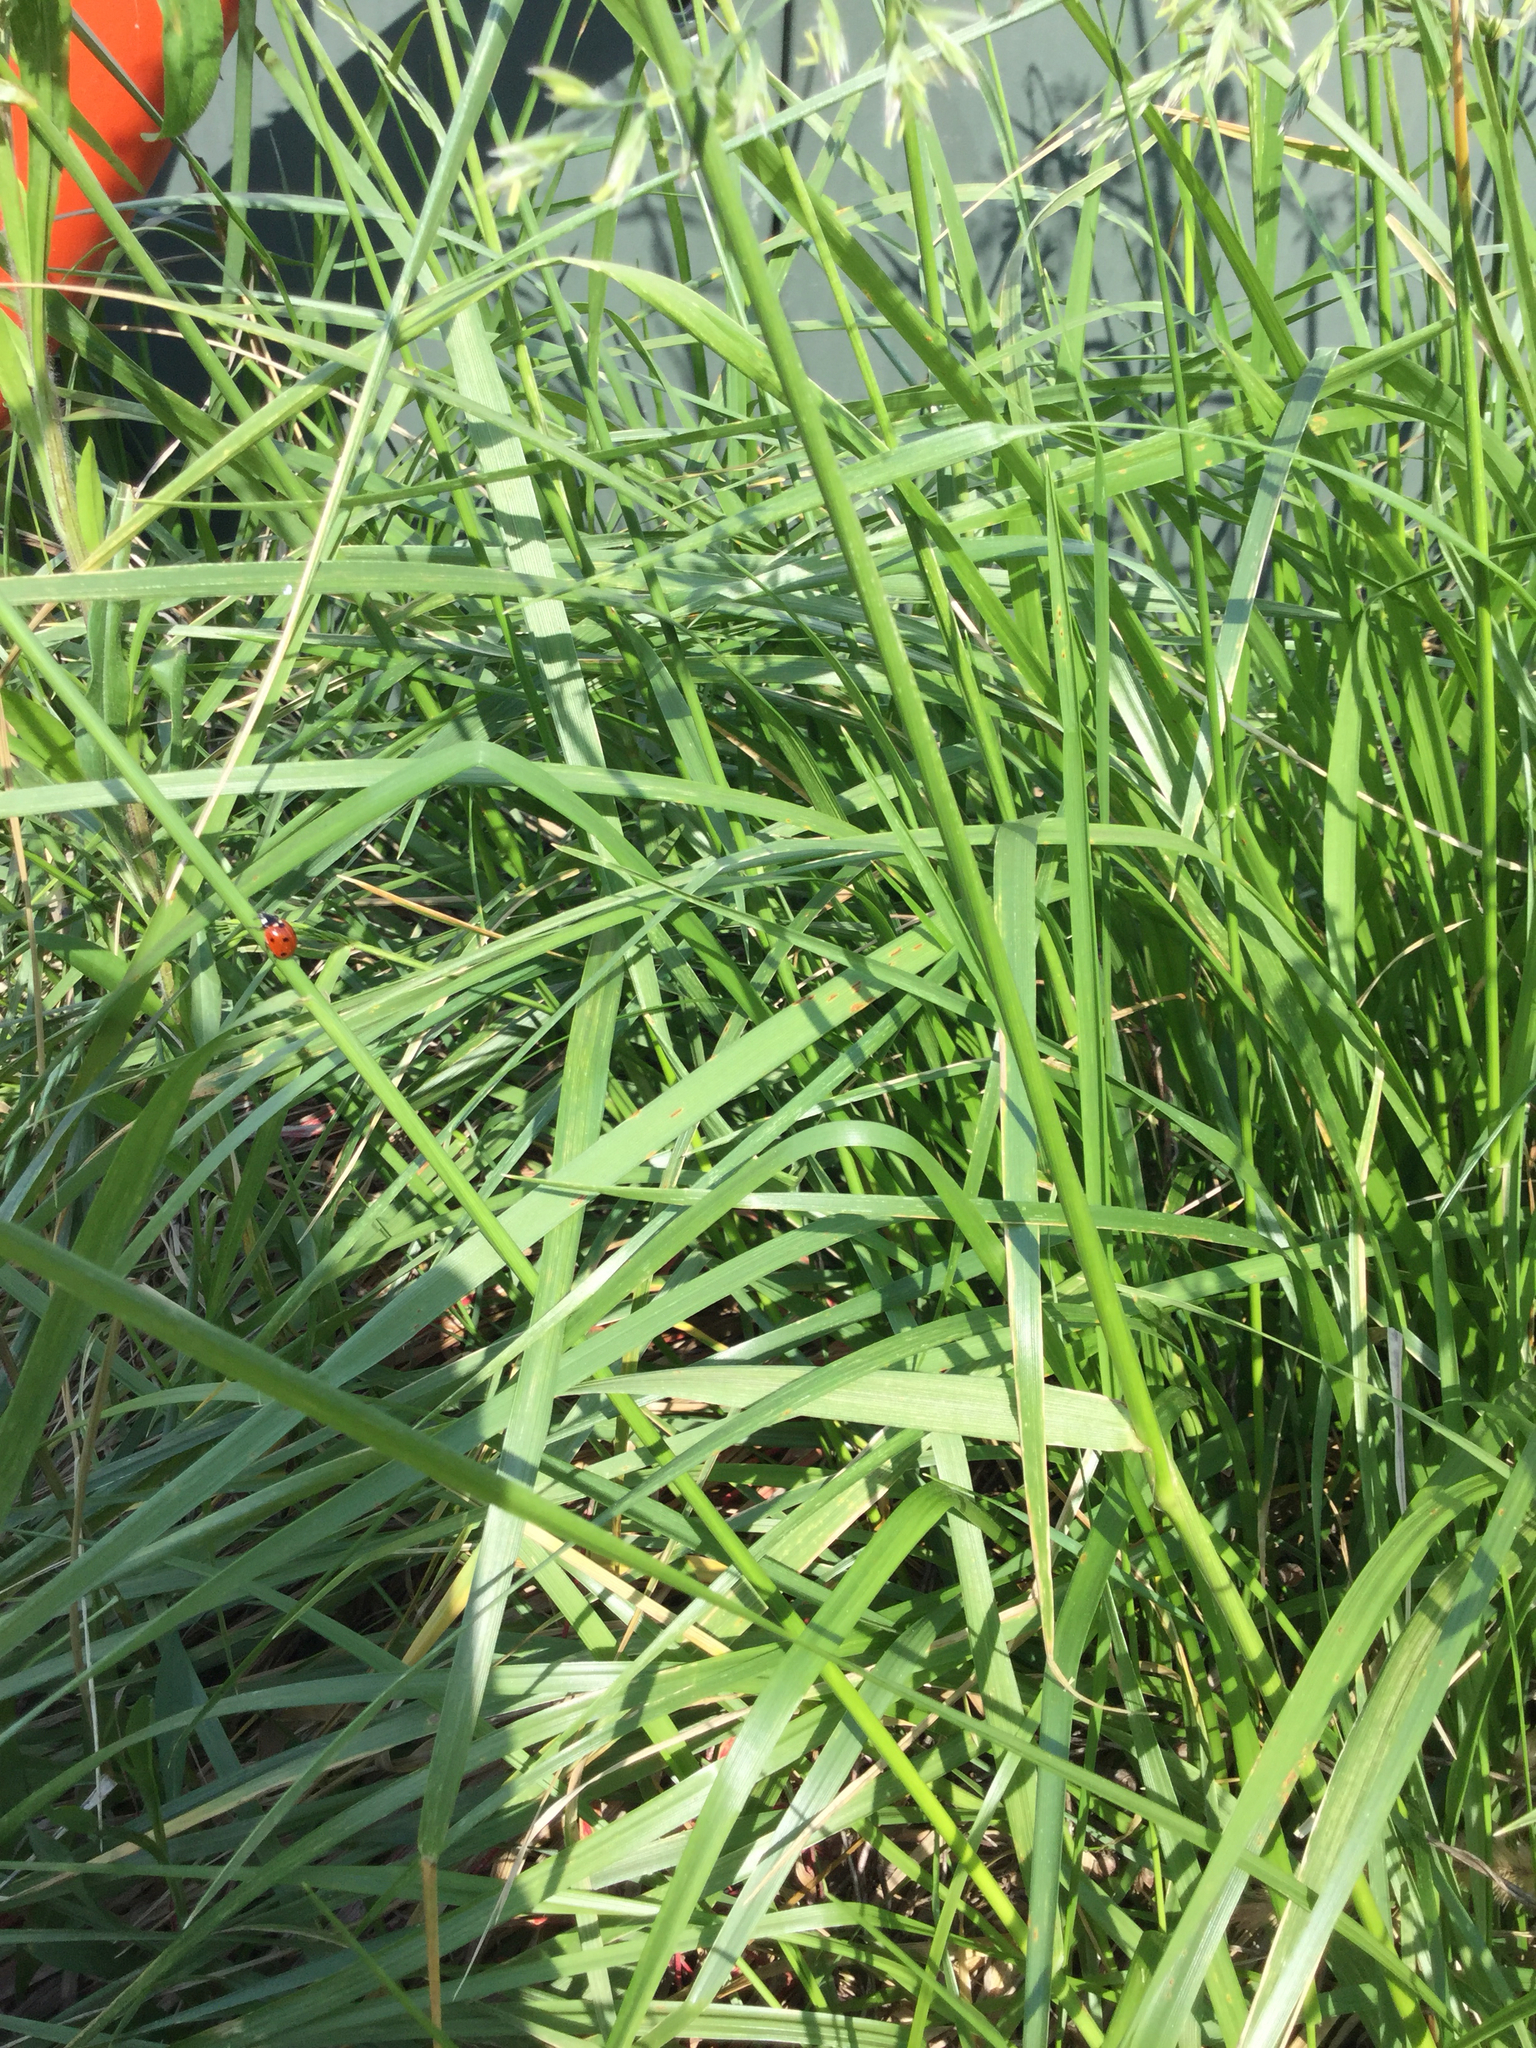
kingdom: Animalia
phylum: Arthropoda
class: Insecta
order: Coleoptera
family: Coccinellidae
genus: Coccinella
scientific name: Coccinella septempunctata
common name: Sevenspotted lady beetle
